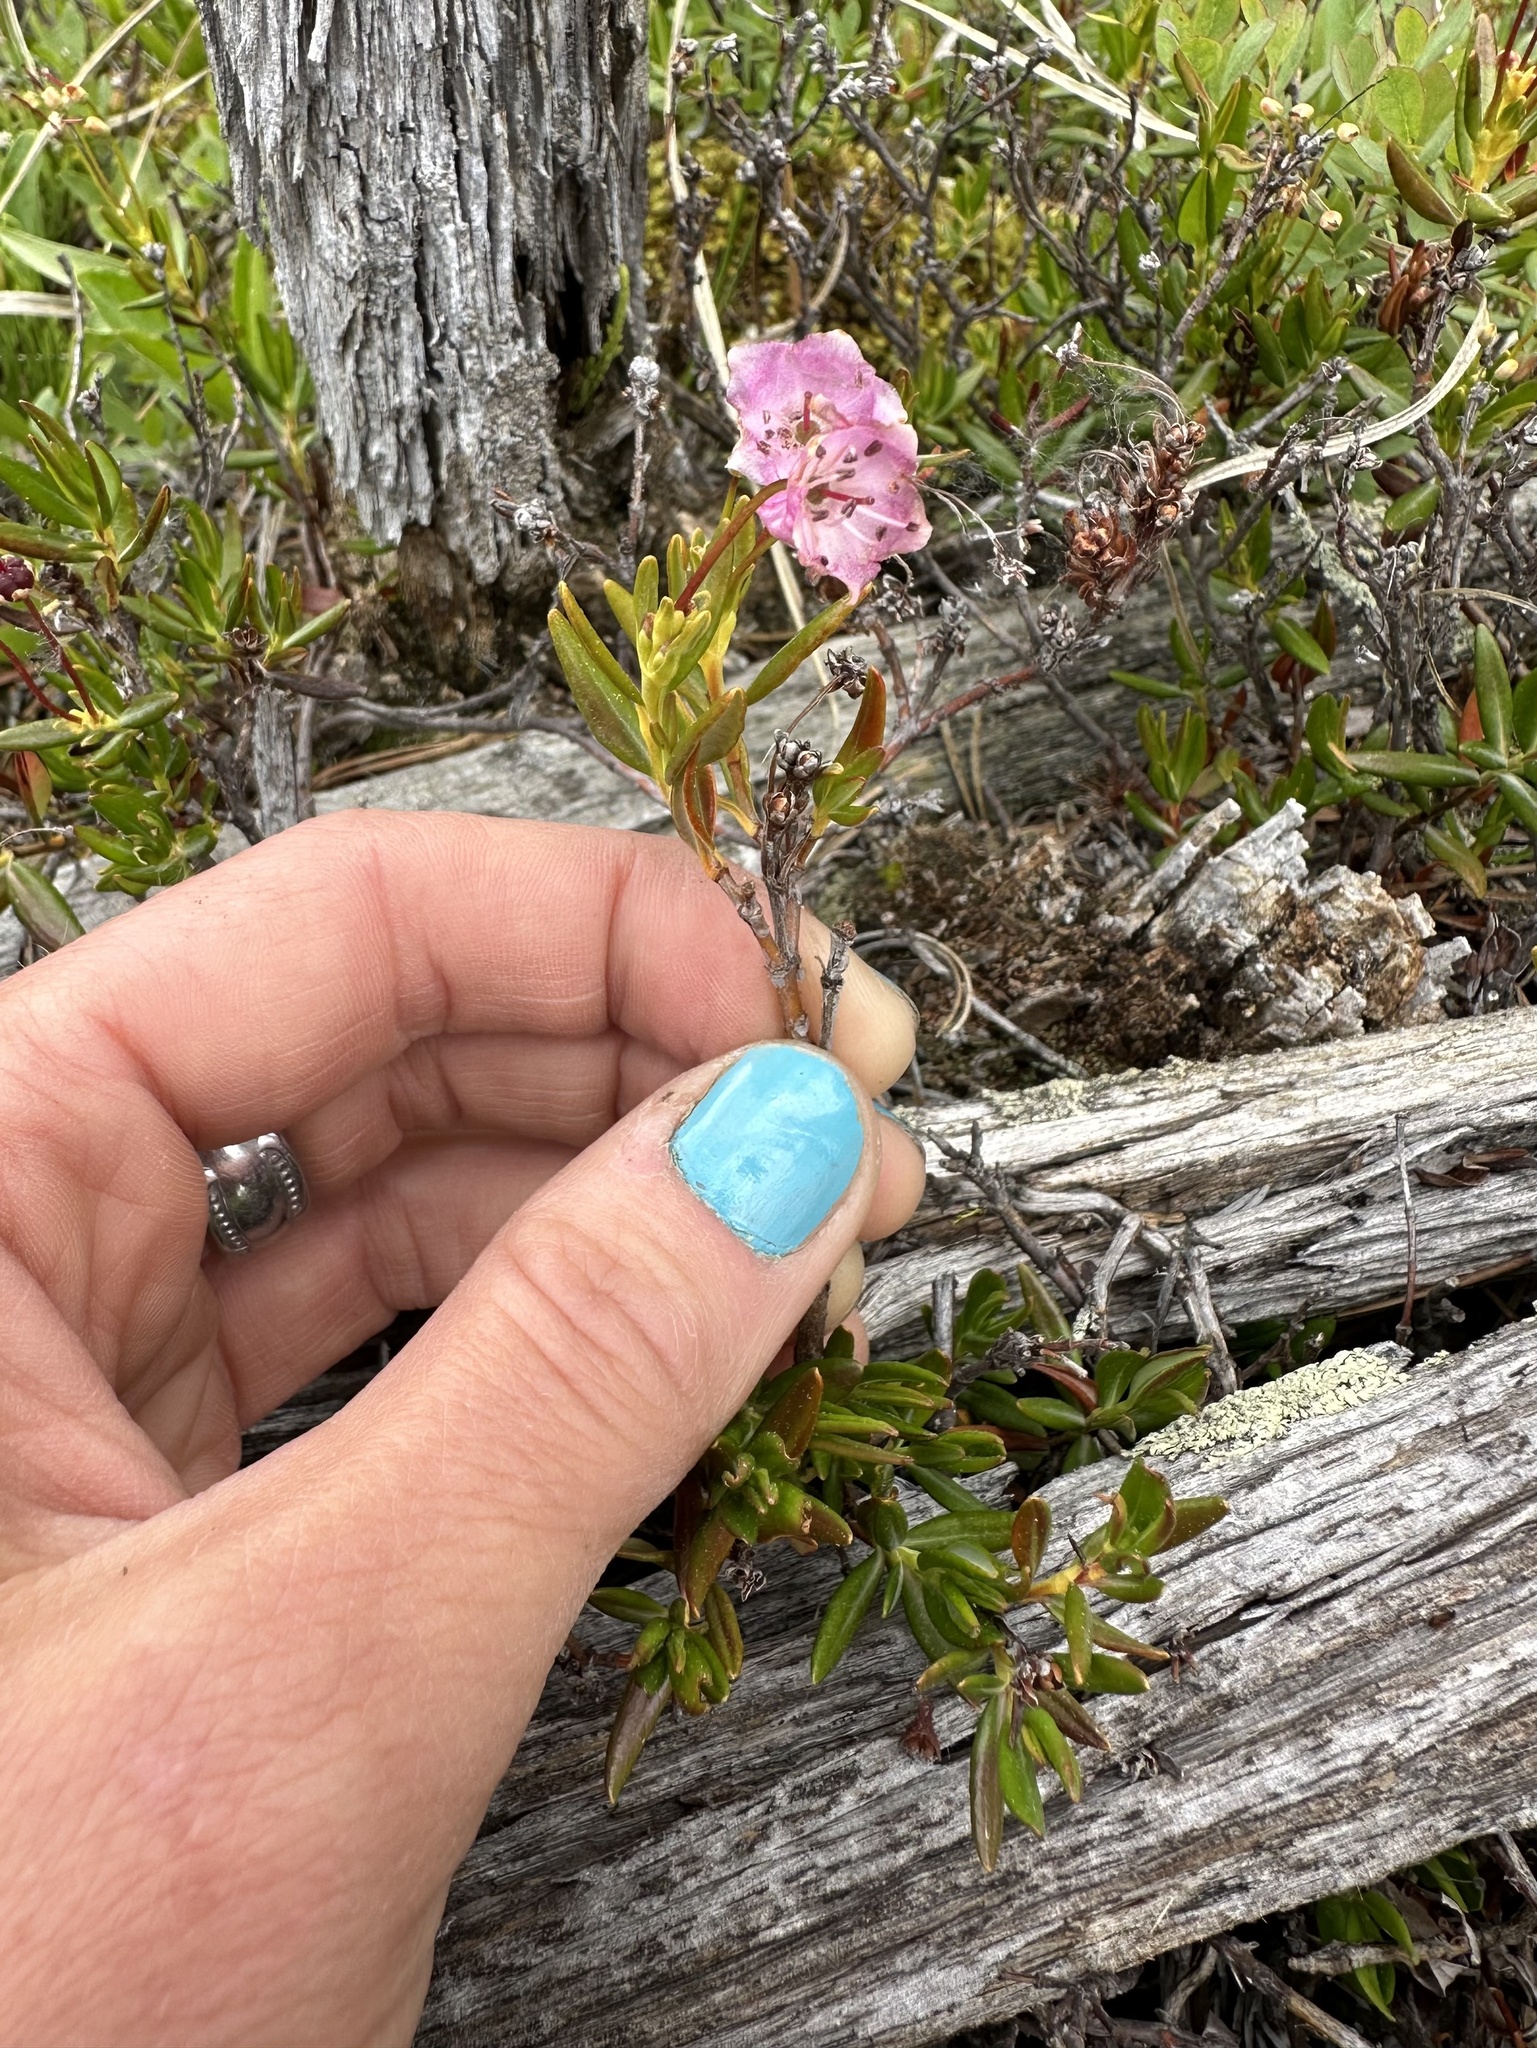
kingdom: Plantae
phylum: Tracheophyta
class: Magnoliopsida
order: Ericales
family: Ericaceae
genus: Kalmia
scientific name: Kalmia microphylla
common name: Alpine bog laurel
